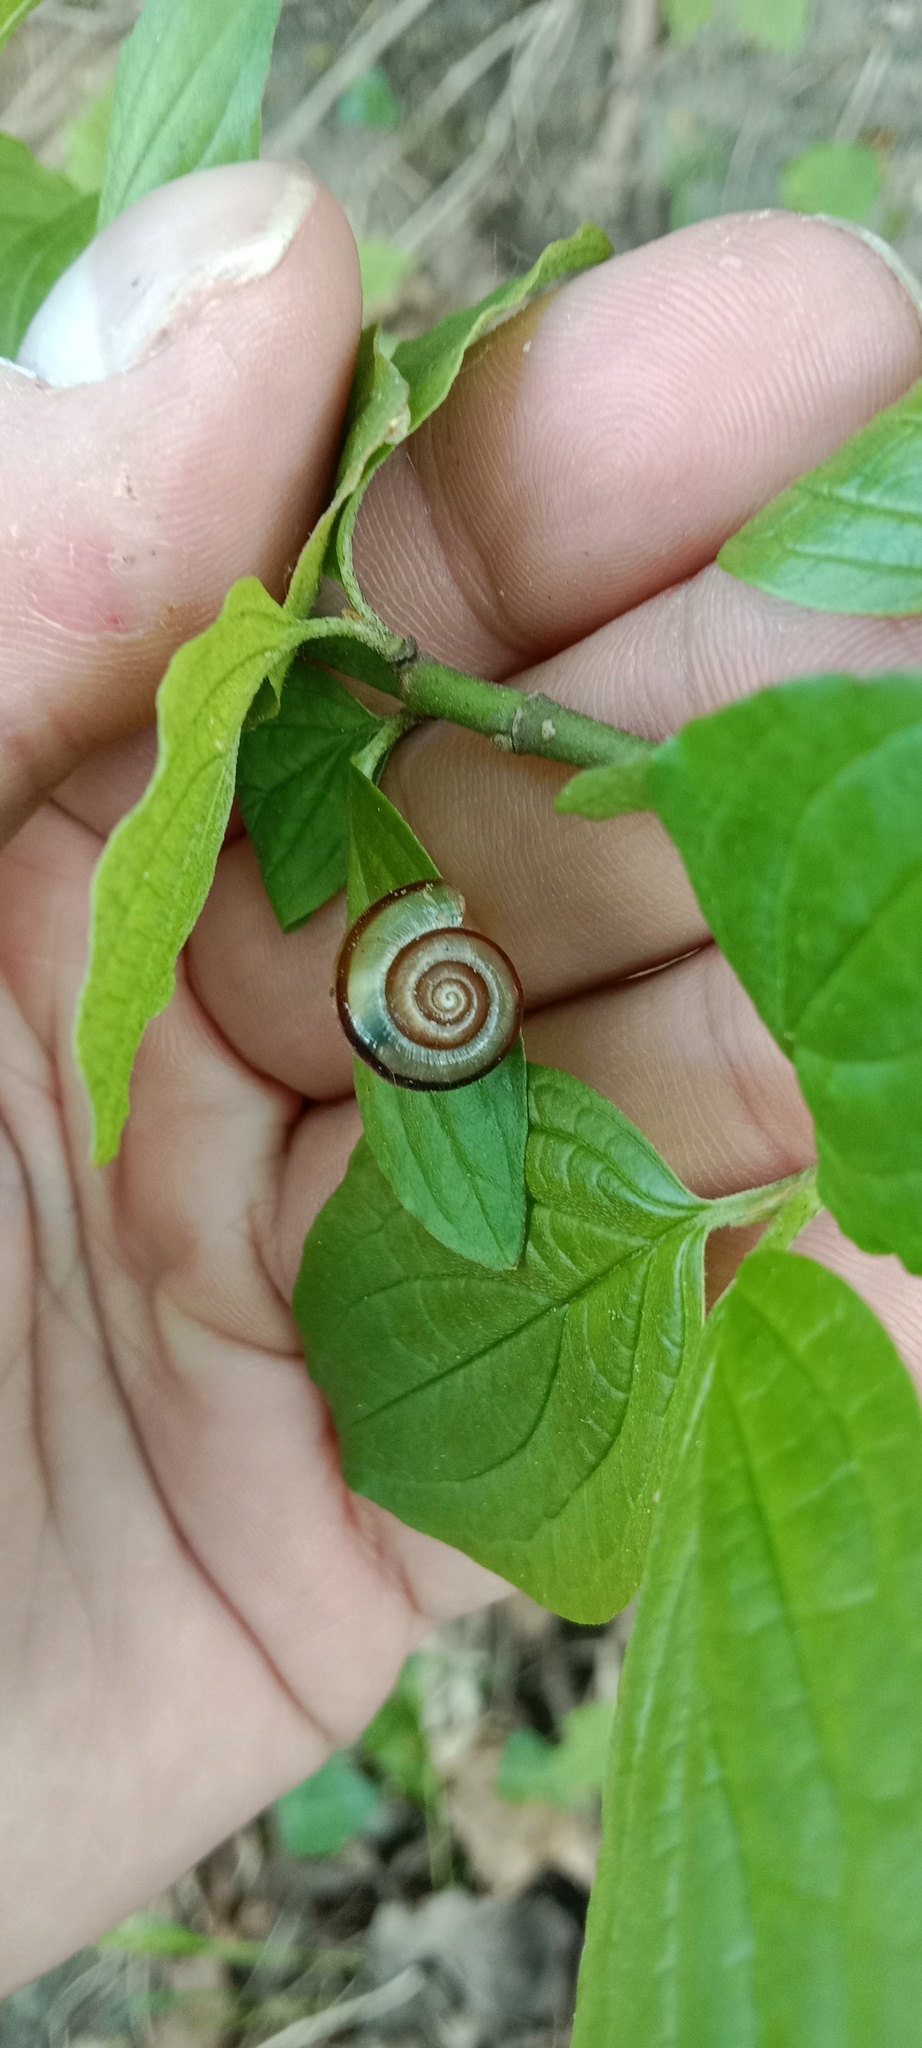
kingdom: Animalia
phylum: Mollusca
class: Gastropoda
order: Stylommatophora
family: Helicidae
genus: Faustina
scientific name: Faustina faustina
